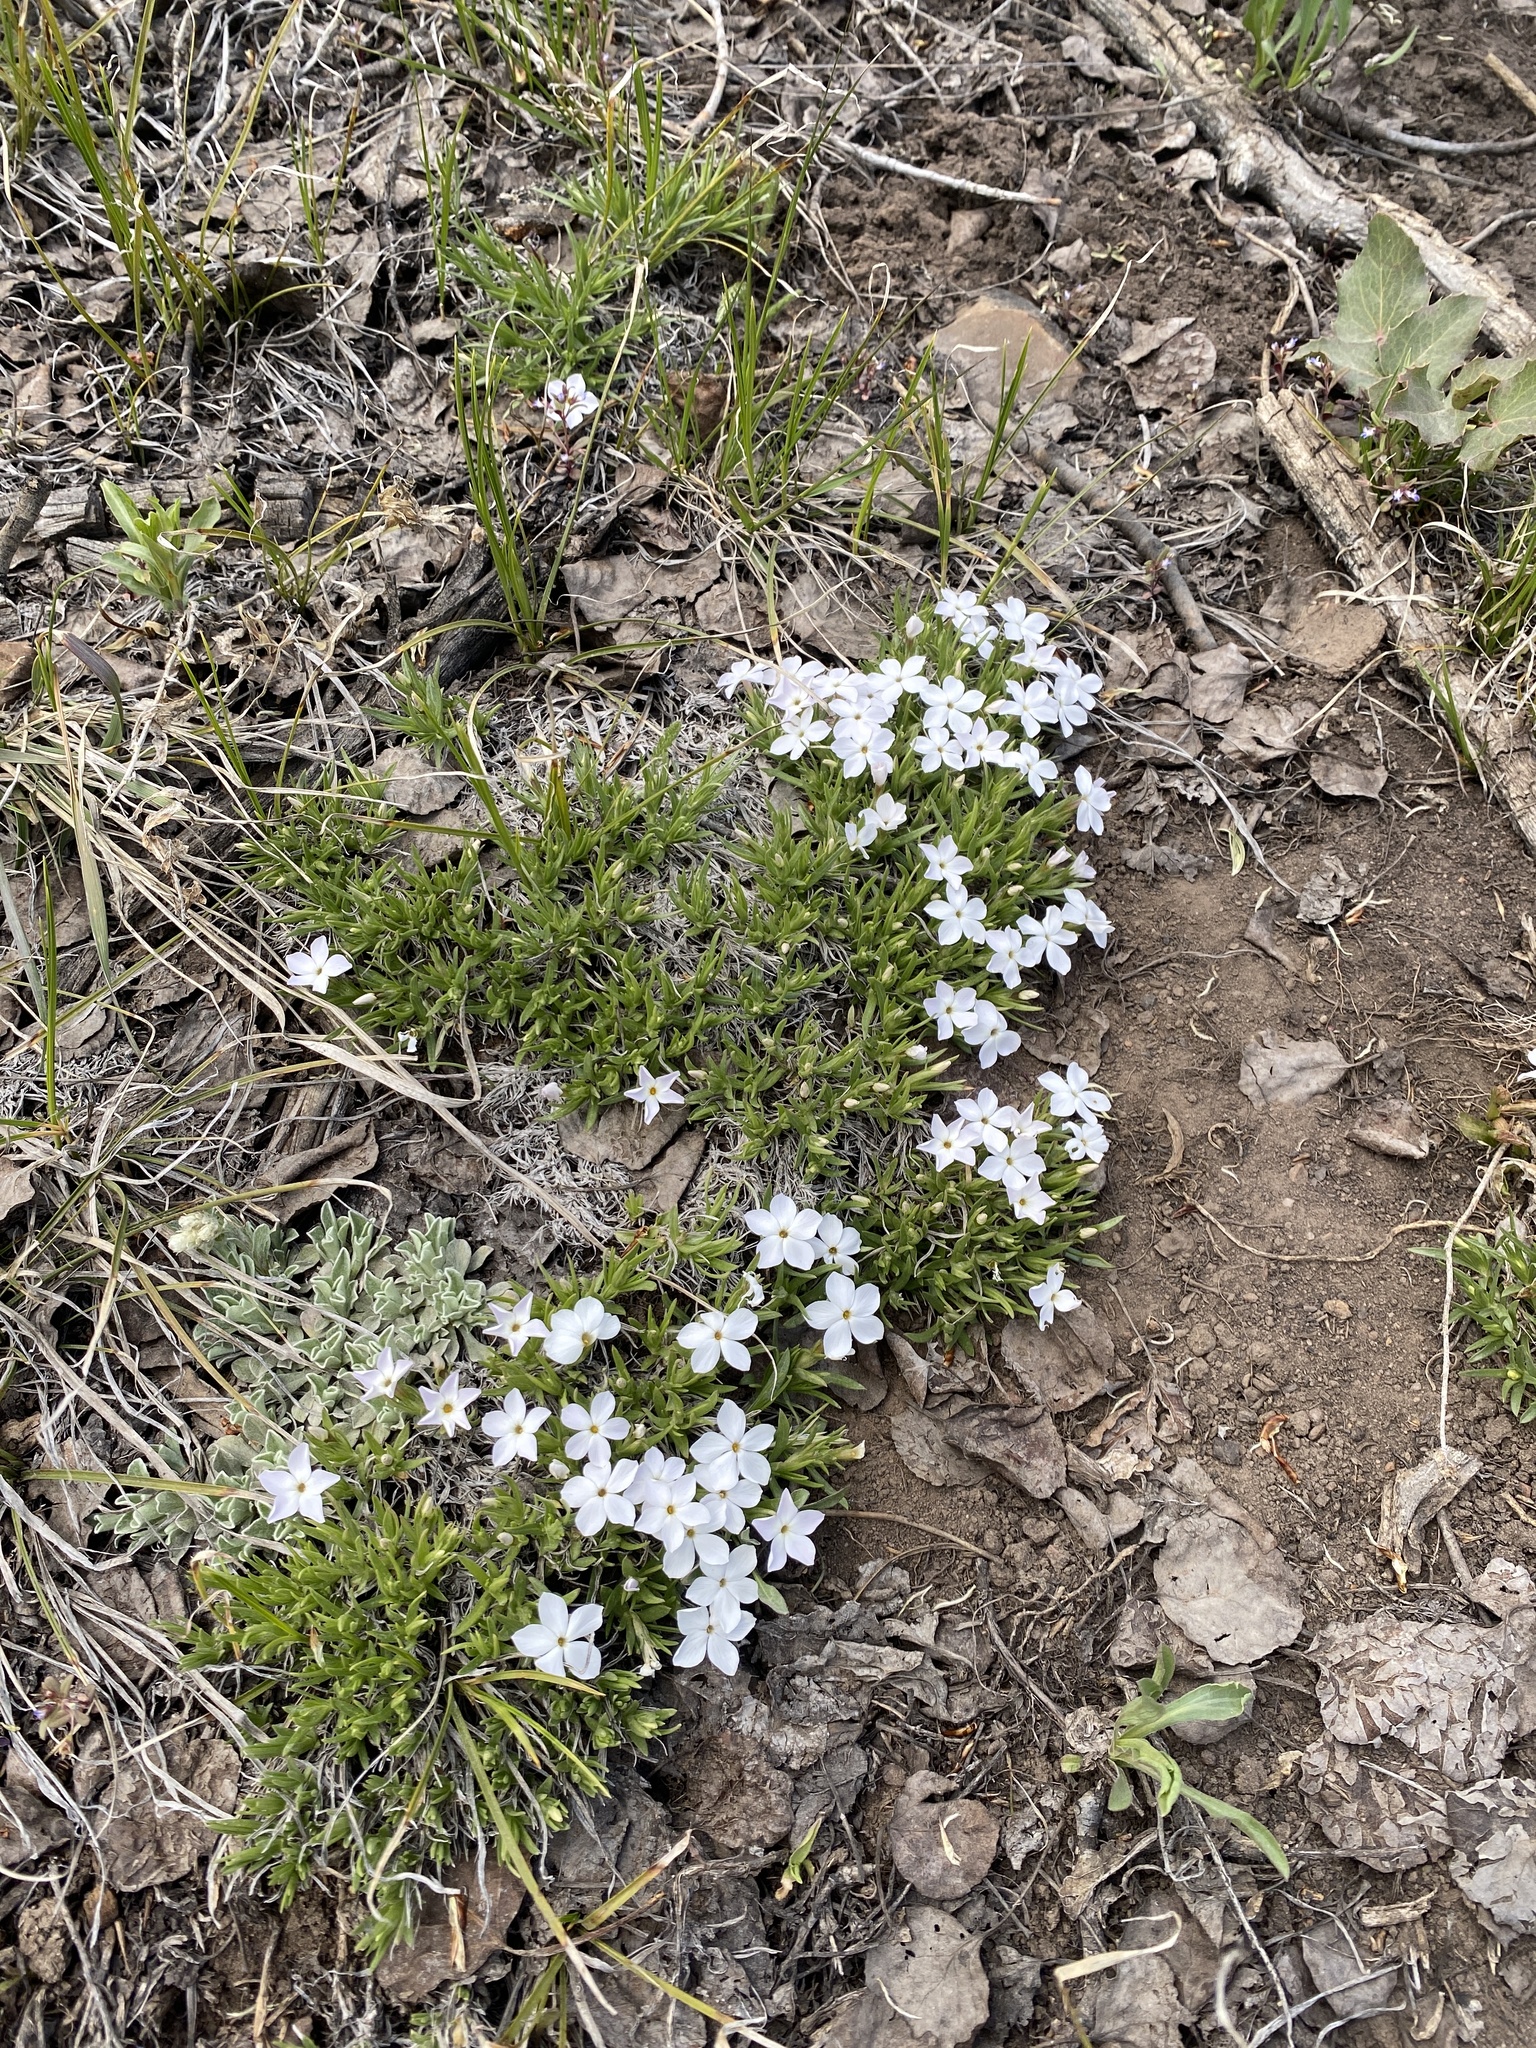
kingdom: Plantae
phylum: Tracheophyta
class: Magnoliopsida
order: Ericales
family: Polemoniaceae
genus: Phlox
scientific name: Phlox multiflora
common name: Rocky mountain phlox
